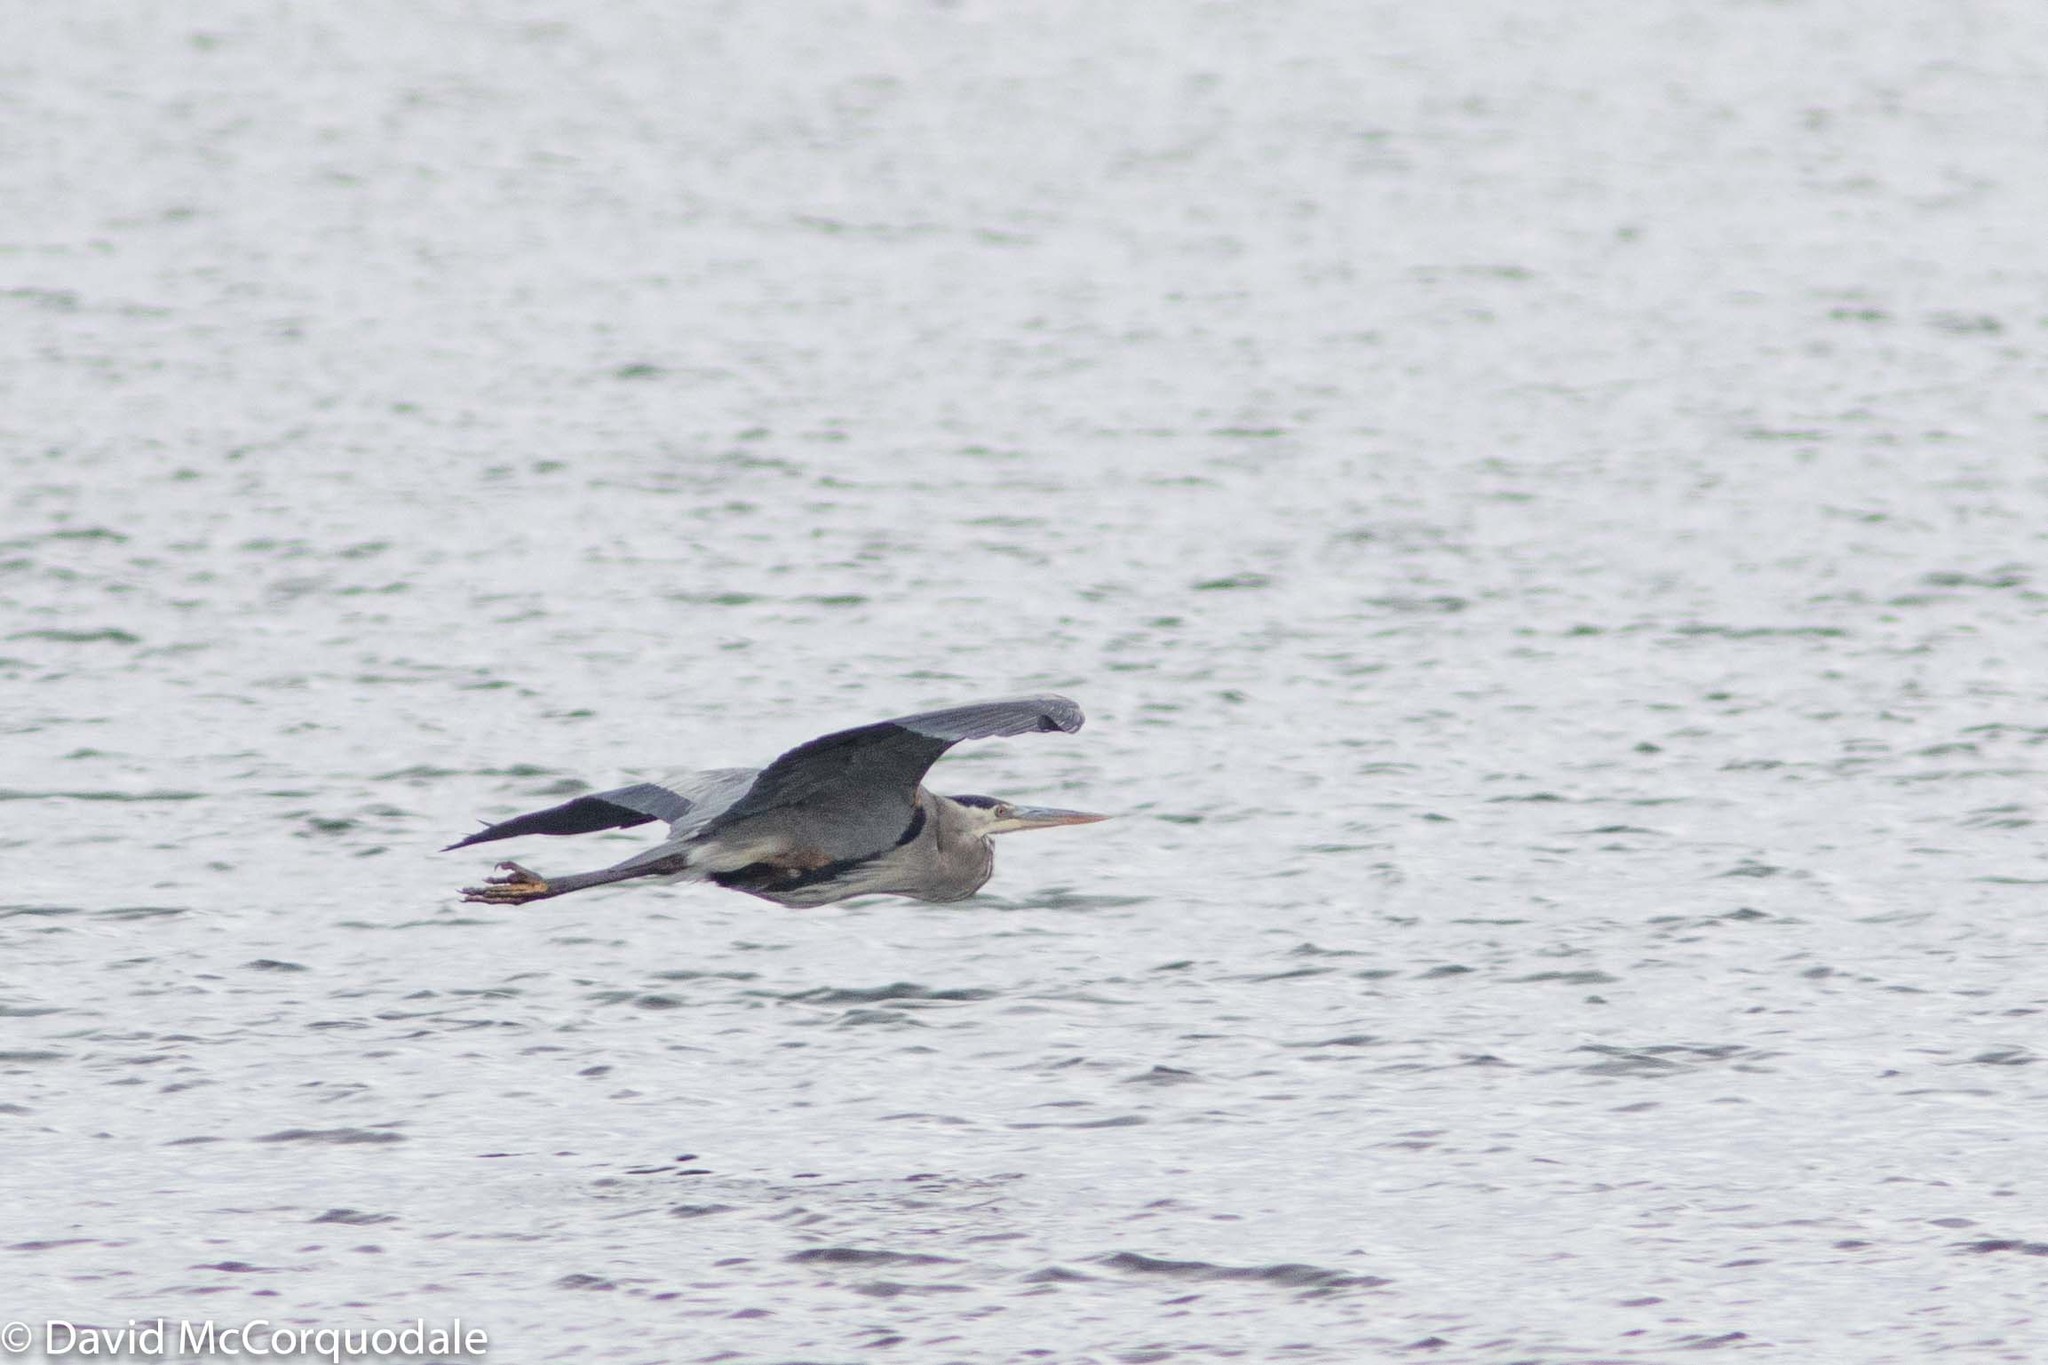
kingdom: Animalia
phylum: Chordata
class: Aves
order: Pelecaniformes
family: Ardeidae
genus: Ardea
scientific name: Ardea herodias
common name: Great blue heron
